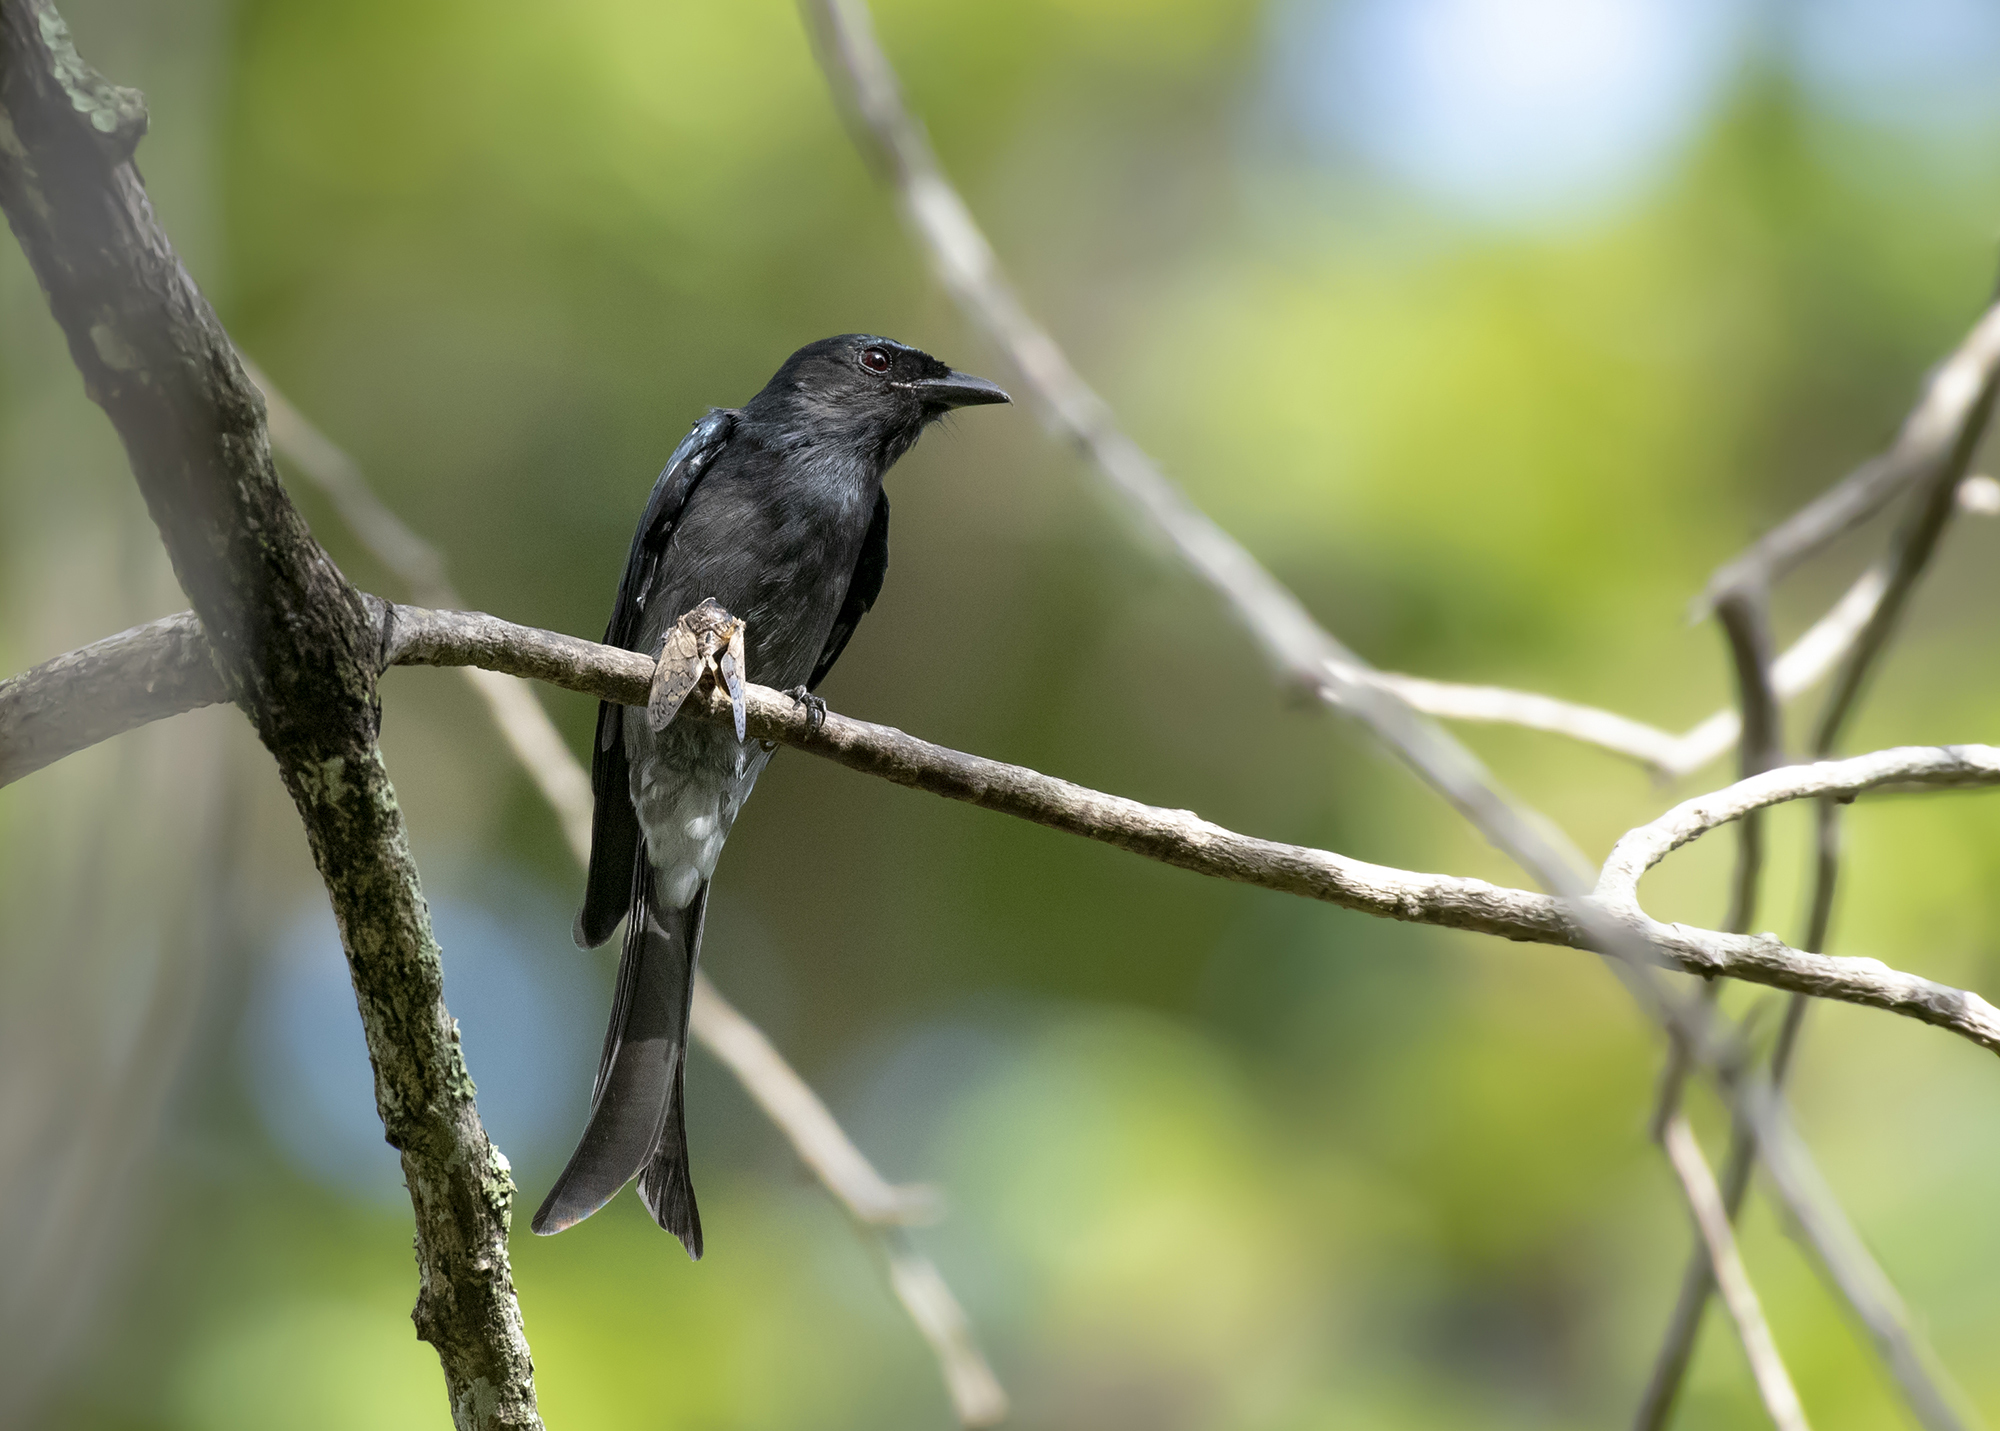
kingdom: Animalia
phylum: Chordata
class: Aves
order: Passeriformes
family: Dicruridae
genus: Dicrurus
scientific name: Dicrurus caerulescens
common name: White-bellied drongo
